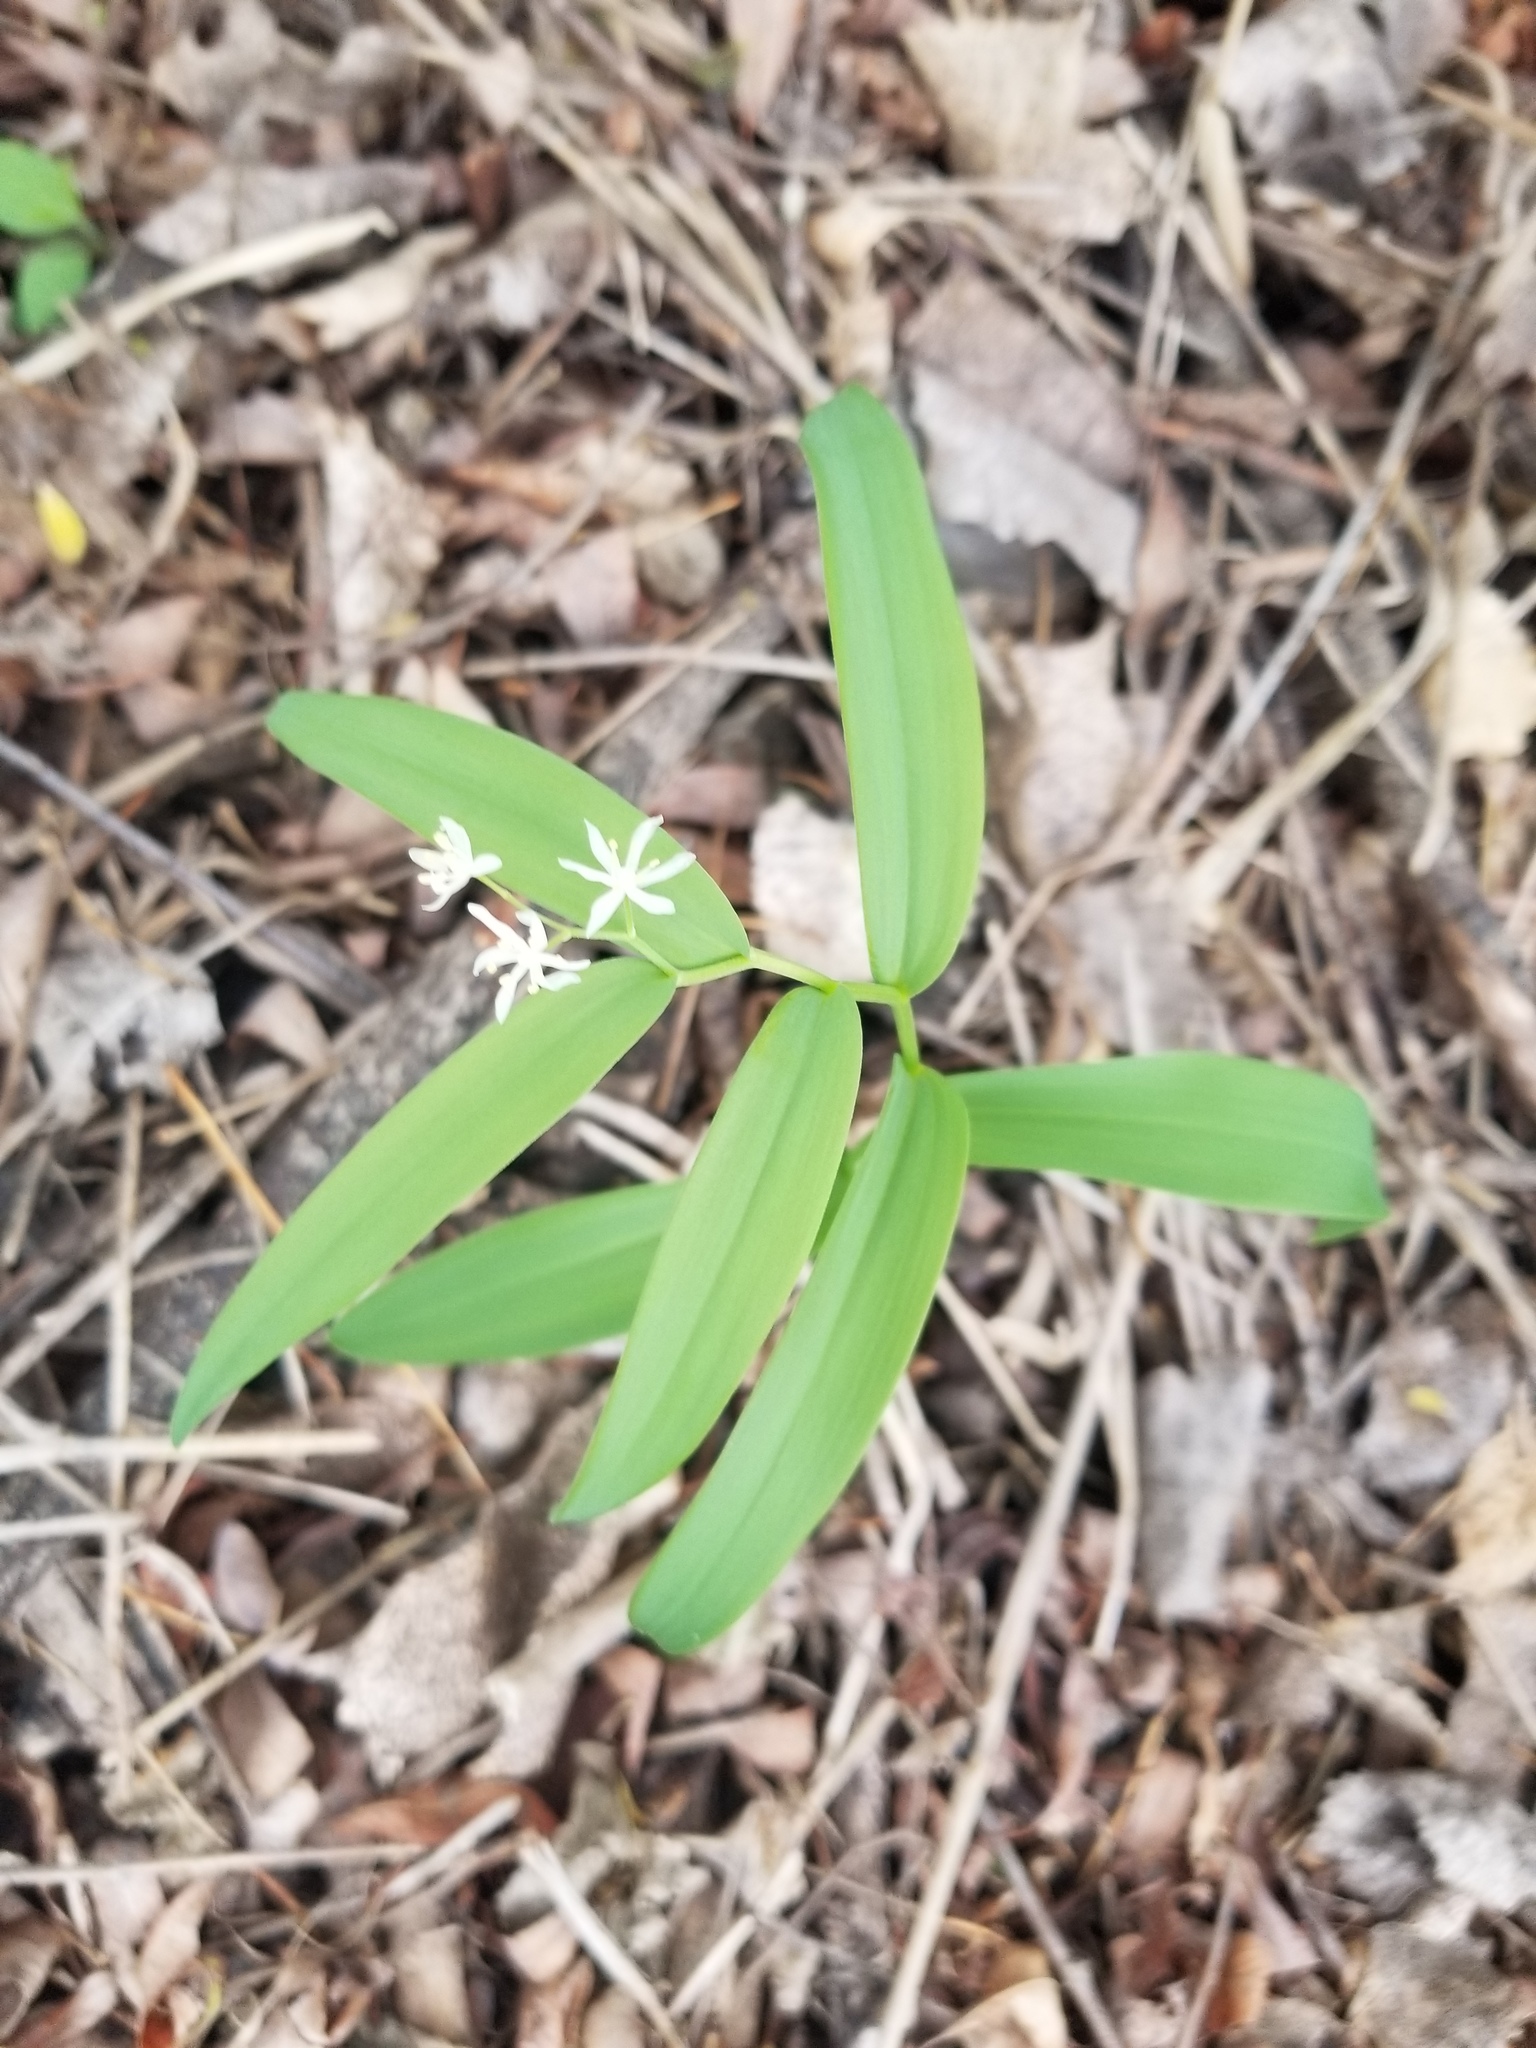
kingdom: Plantae
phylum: Tracheophyta
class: Liliopsida
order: Asparagales
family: Asparagaceae
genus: Maianthemum
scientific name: Maianthemum stellatum
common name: Little false solomon's seal
